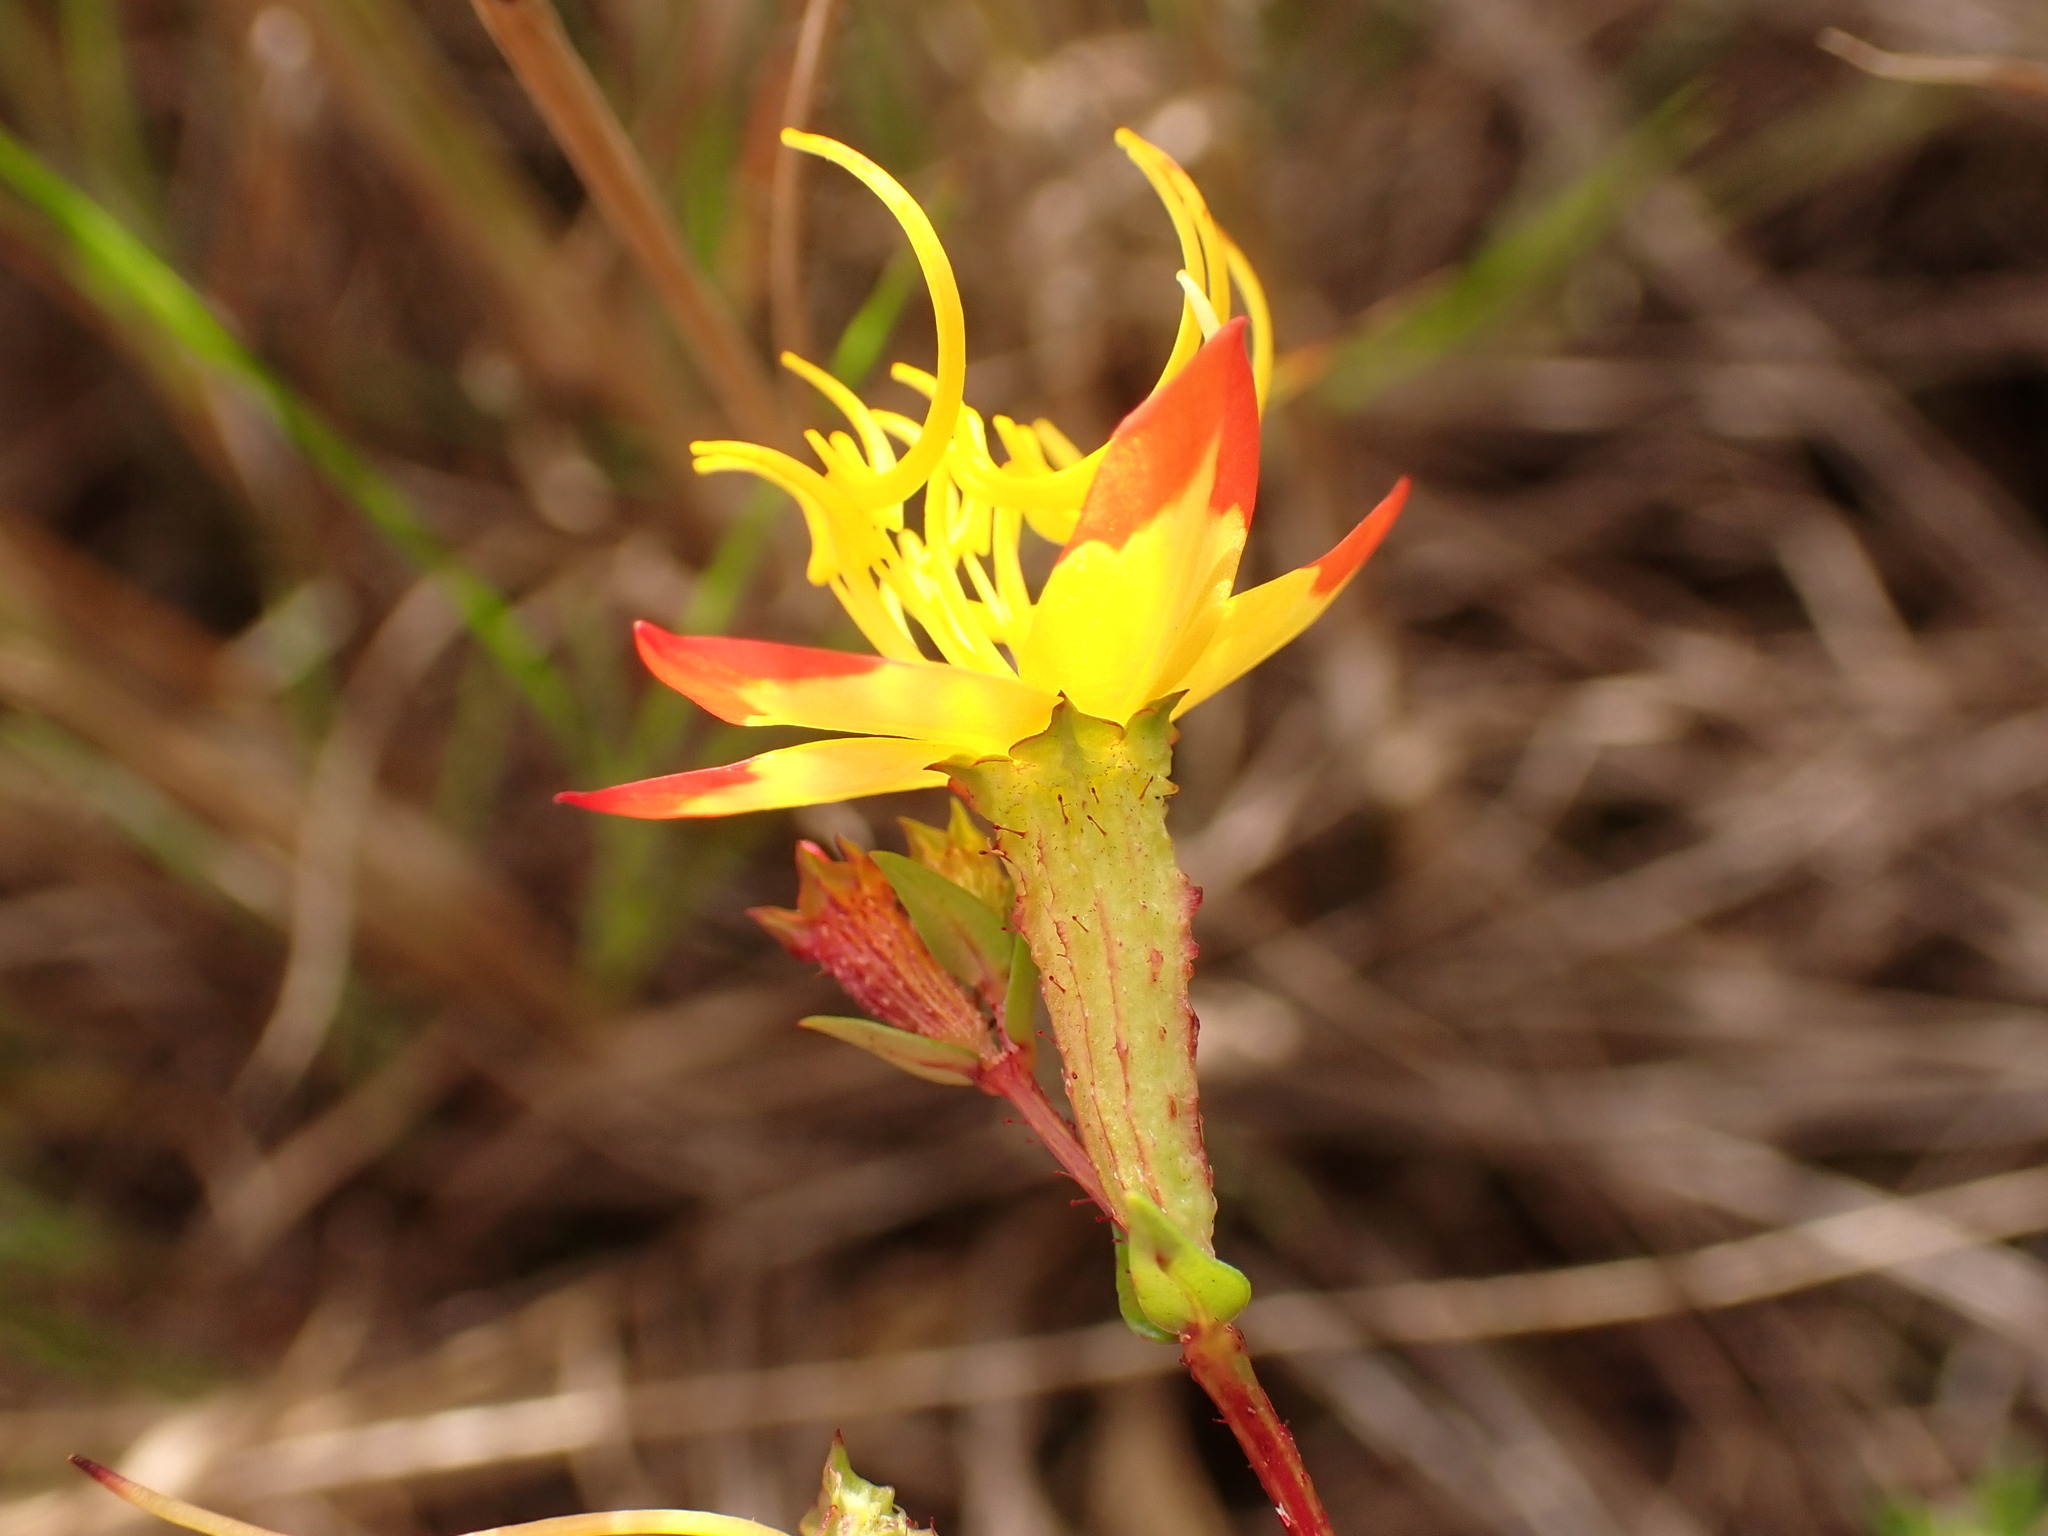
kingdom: Plantae
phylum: Tracheophyta
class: Magnoliopsida
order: Myrtales
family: Melastomataceae
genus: Cambessedesia
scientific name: Cambessedesia semidecandra
